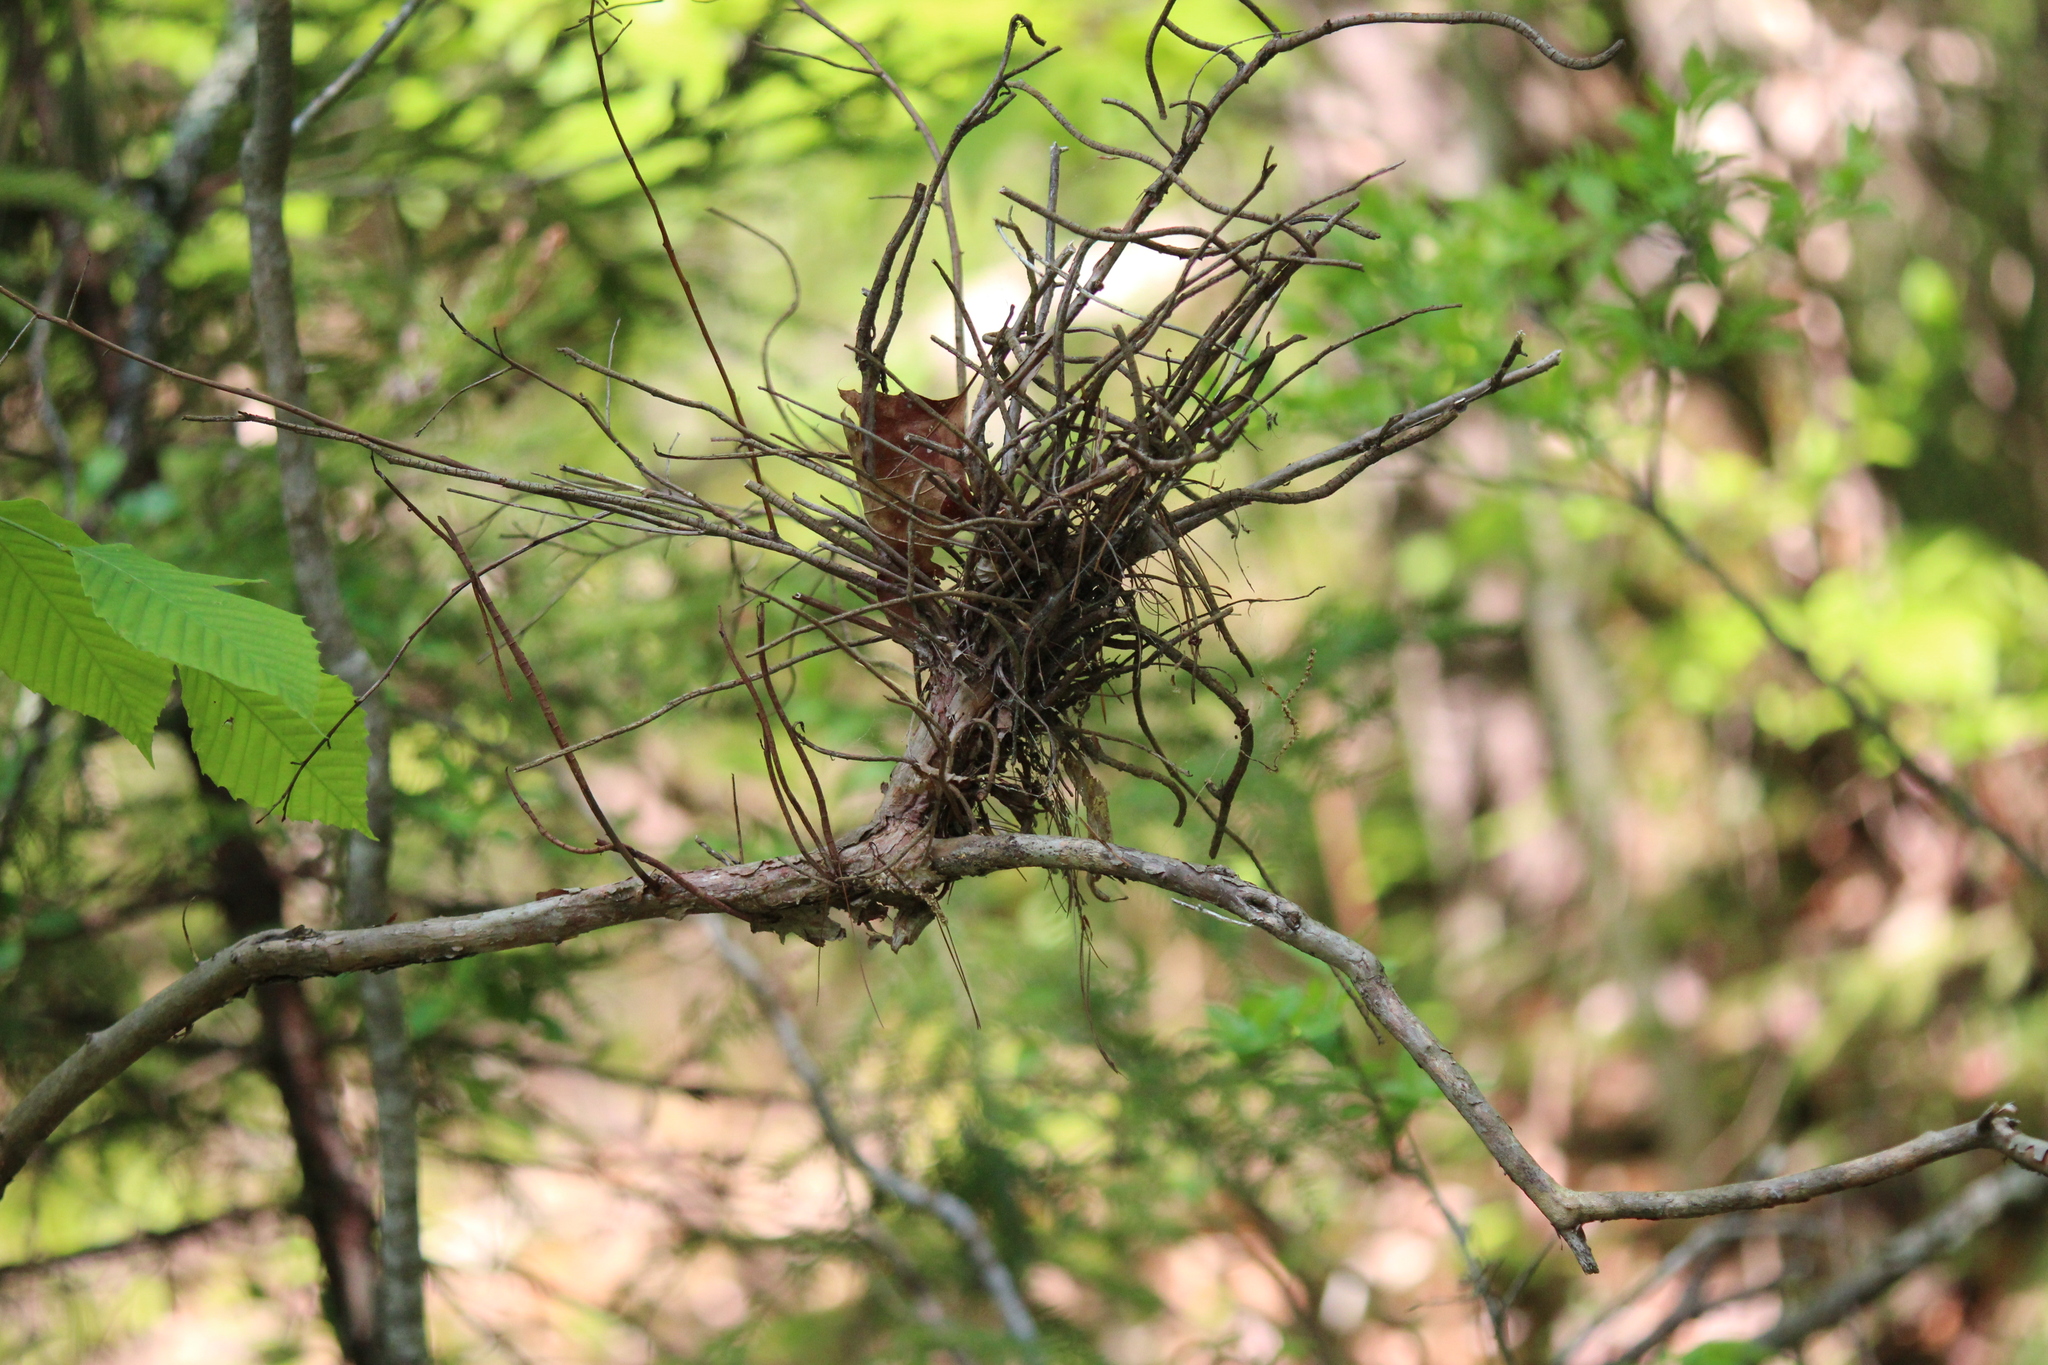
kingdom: Fungi
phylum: Basidiomycota
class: Pucciniomycetes
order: Pucciniales
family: Pucciniastraceae
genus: Calyptospora
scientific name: Calyptospora columnaris
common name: Huckleberry broom rust fungus
